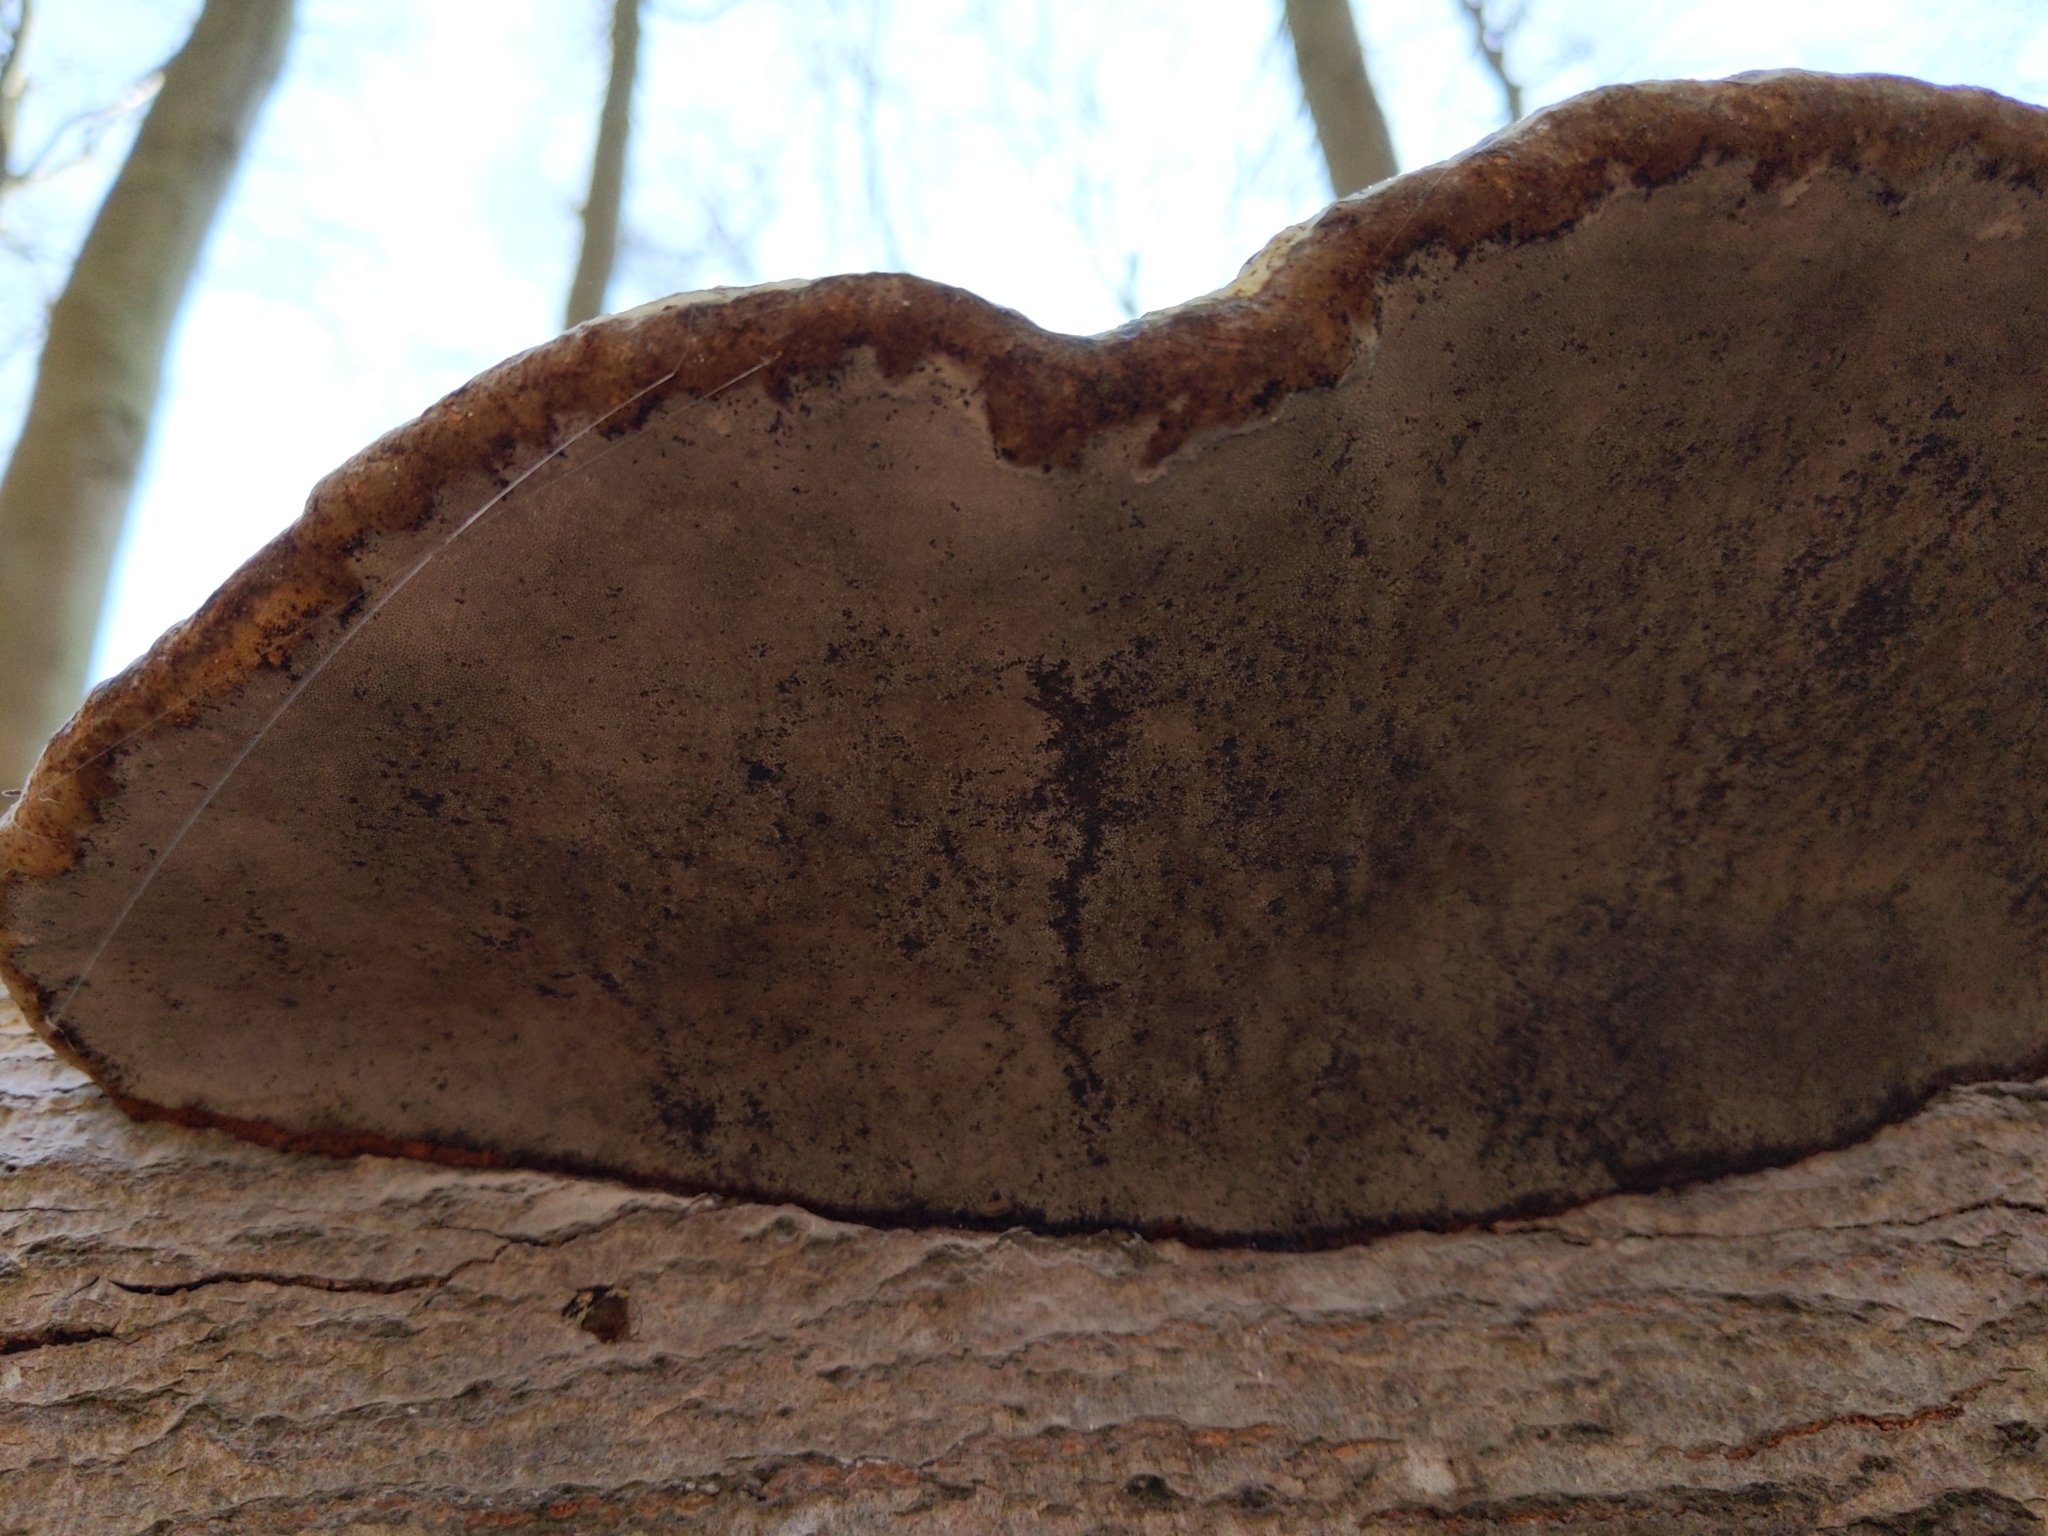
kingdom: Fungi
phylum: Basidiomycota
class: Agaricomycetes
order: Polyporales
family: Polyporaceae
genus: Fomes
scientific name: Fomes fomentarius
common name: Hoof fungus
